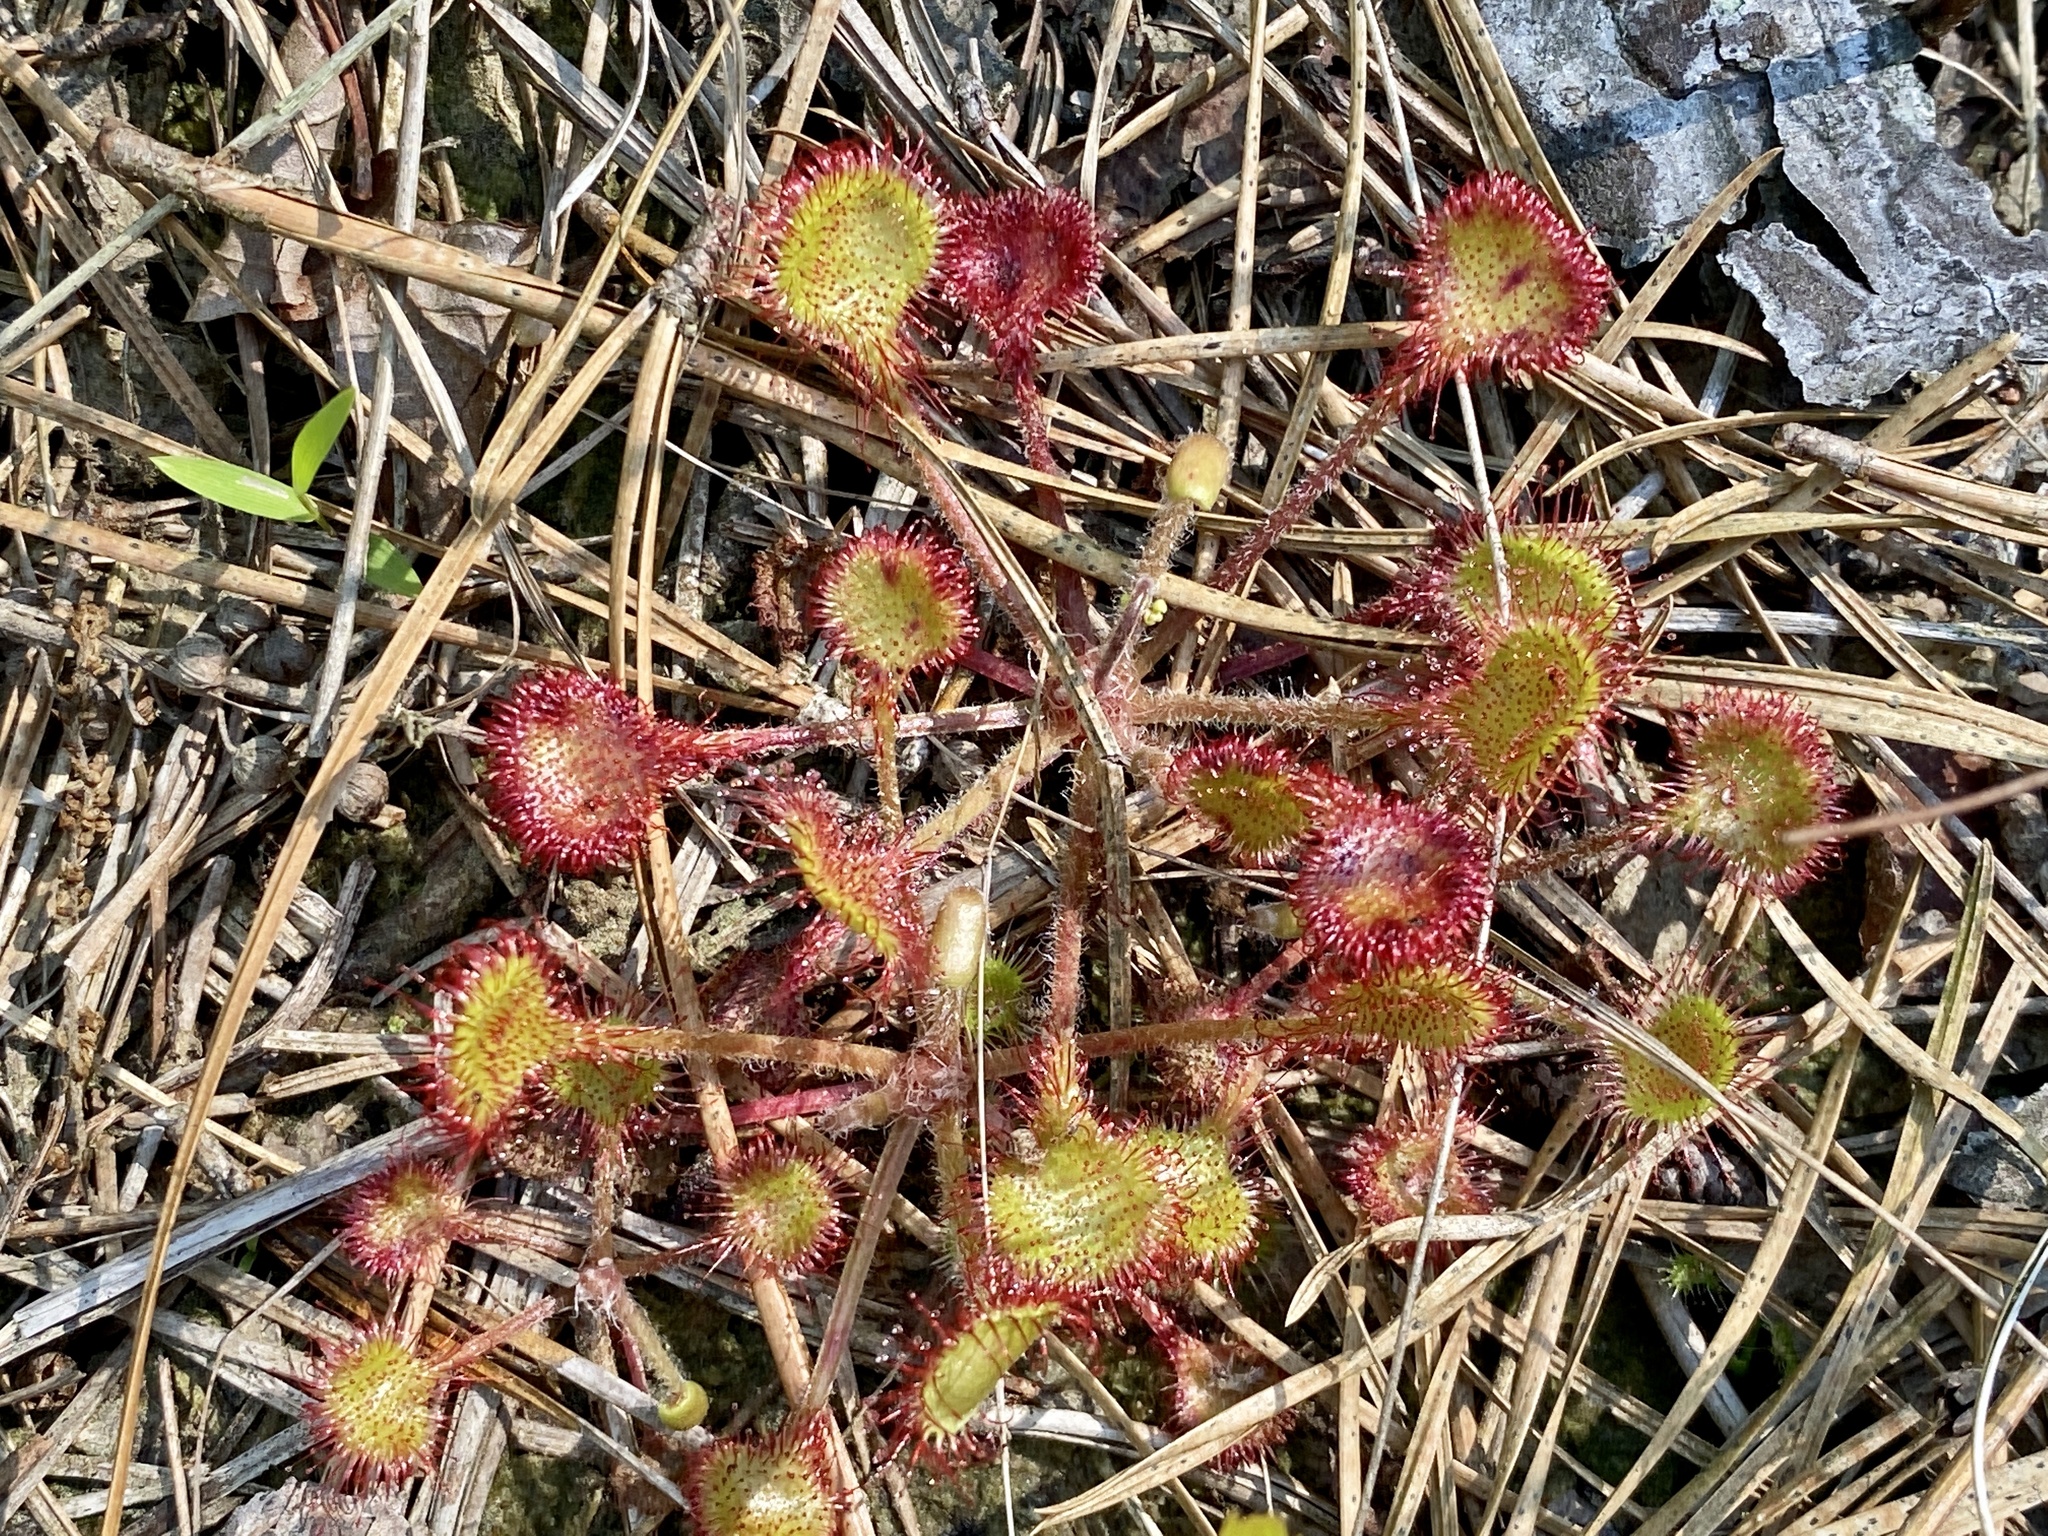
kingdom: Plantae
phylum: Tracheophyta
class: Magnoliopsida
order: Caryophyllales
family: Droseraceae
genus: Drosera
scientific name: Drosera rotundifolia
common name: Round-leaved sundew
